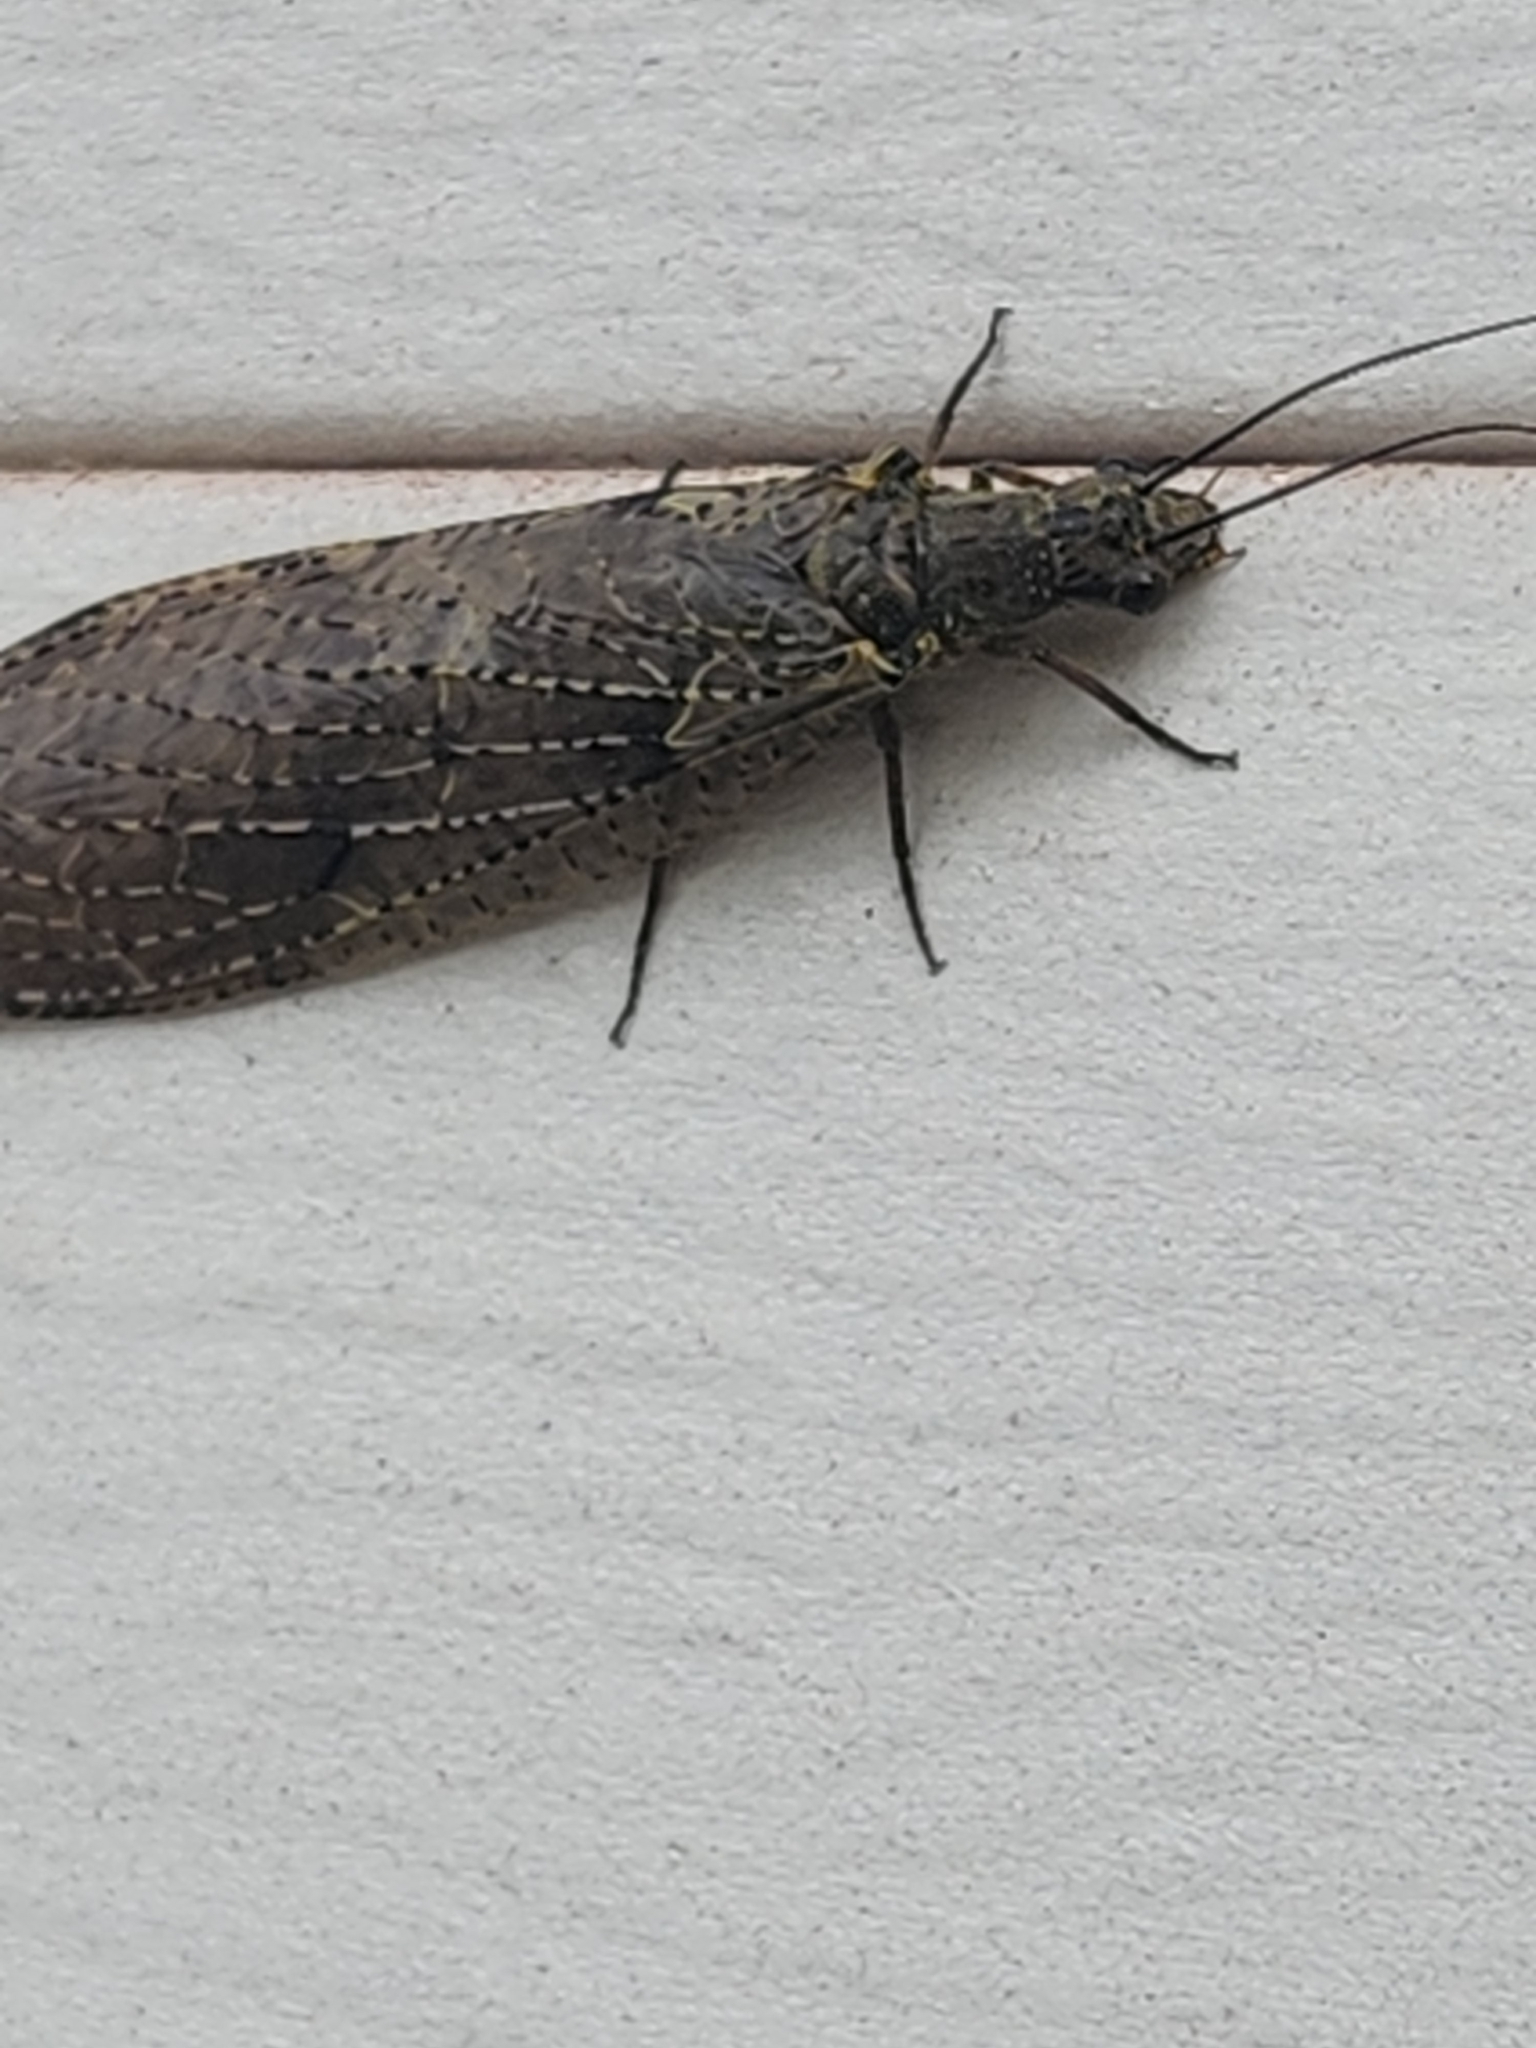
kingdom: Animalia
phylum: Arthropoda
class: Insecta
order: Megaloptera
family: Corydalidae
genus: Chauliodes
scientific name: Chauliodes rastricornis
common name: Spring fishfly
